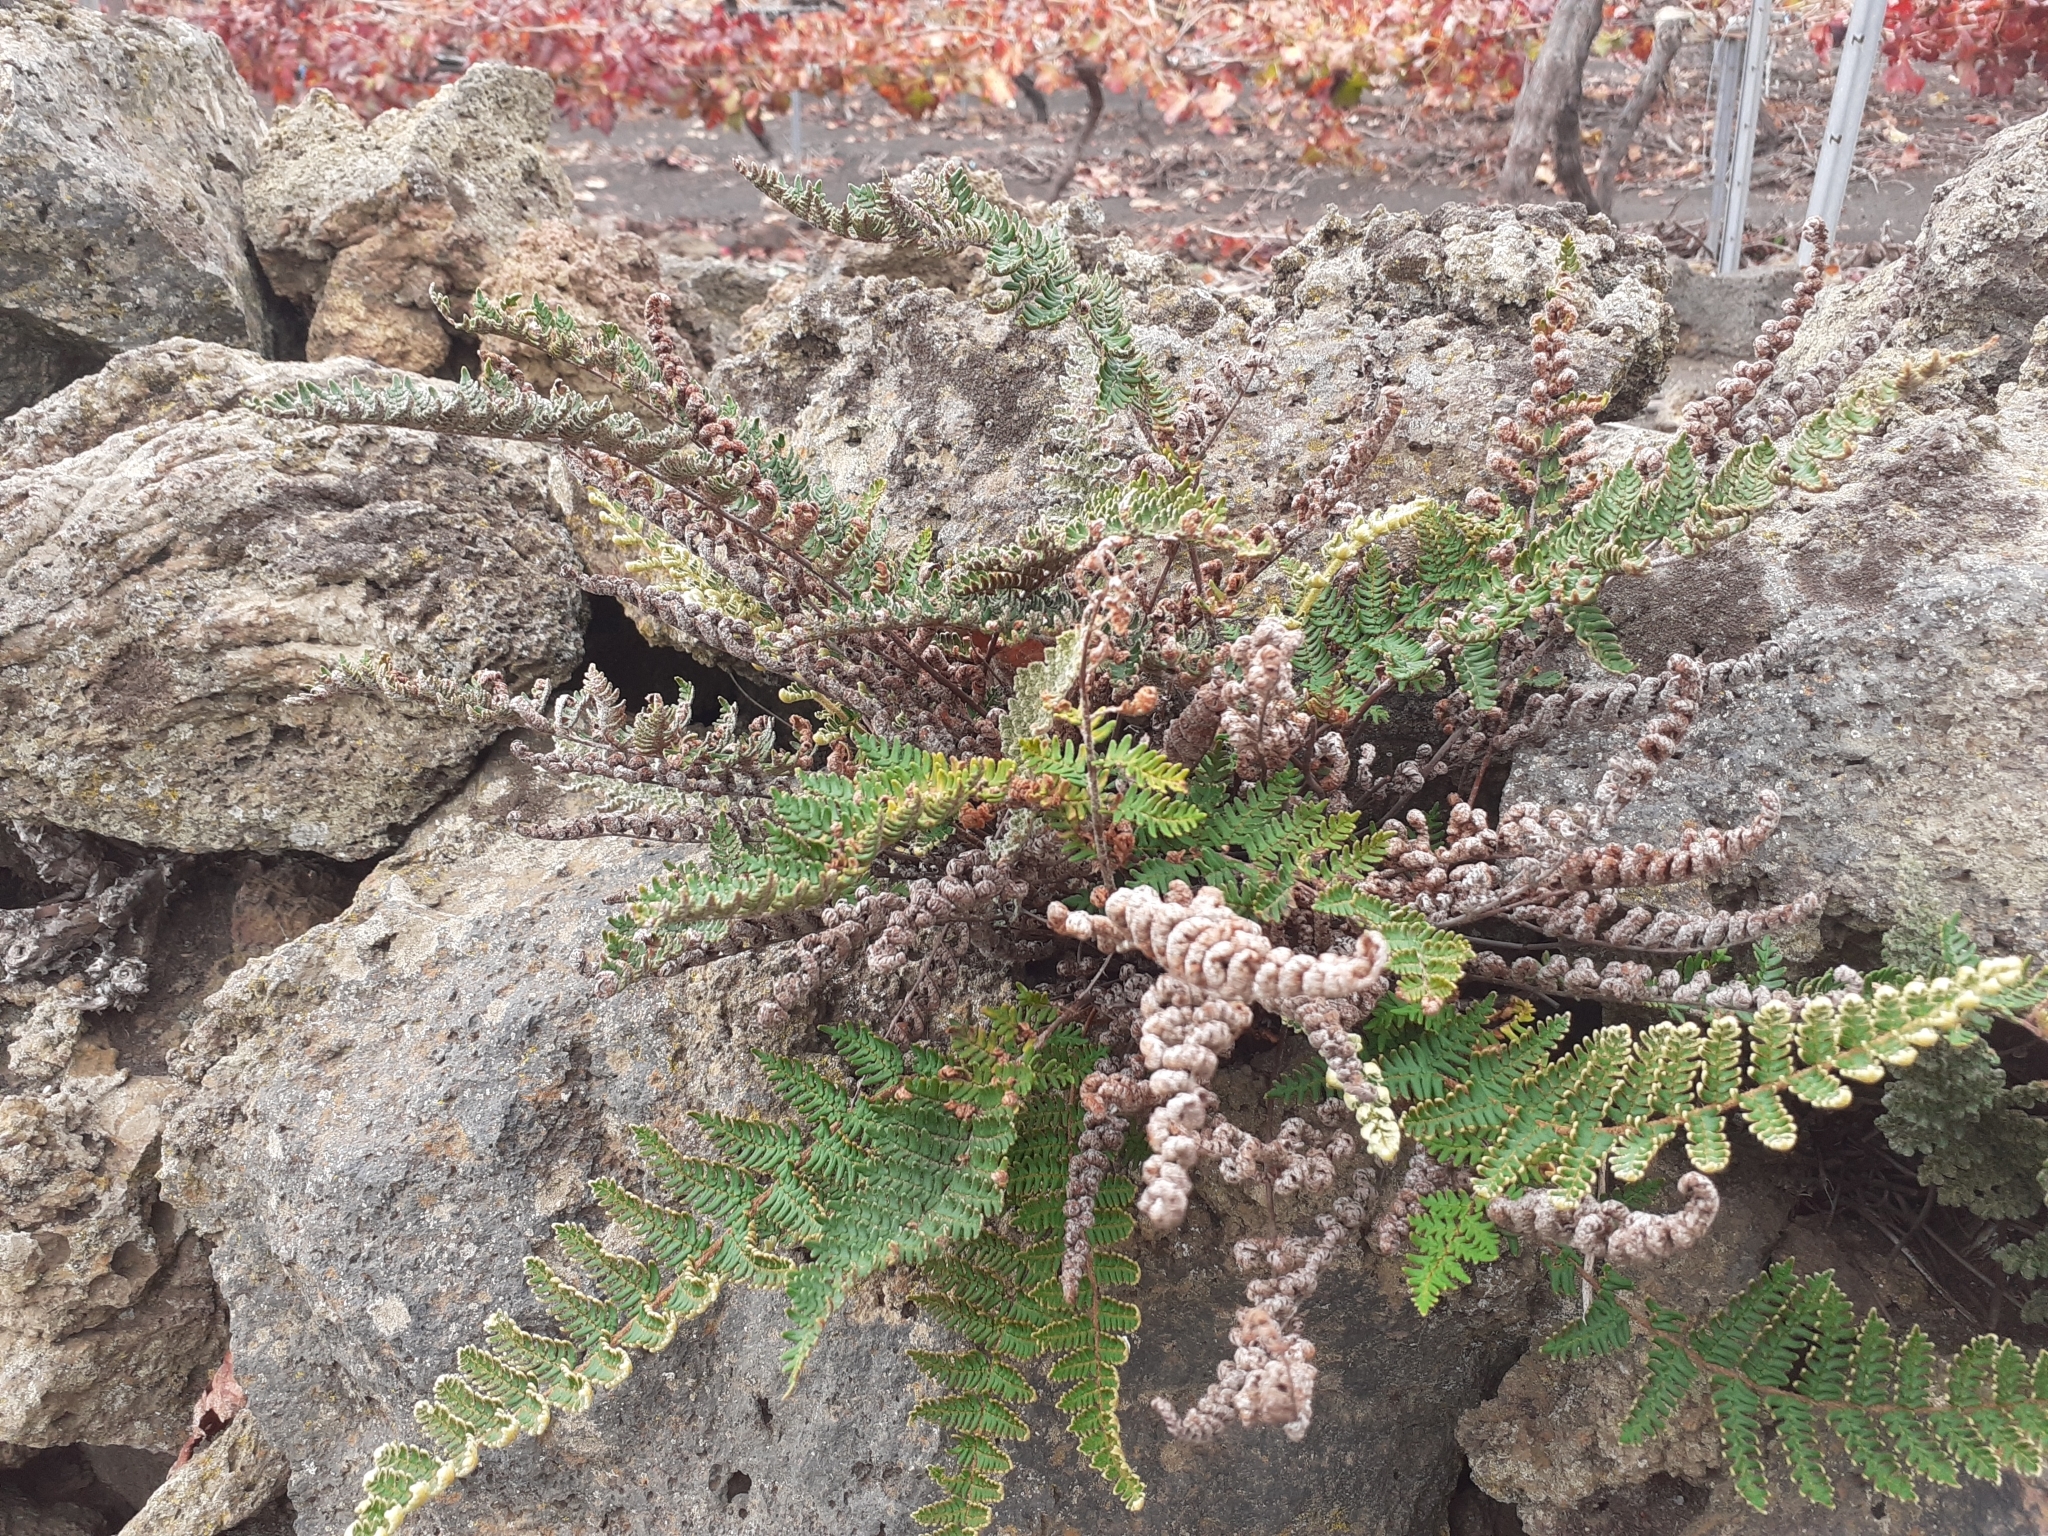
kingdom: Plantae
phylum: Tracheophyta
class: Polypodiopsida
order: Polypodiales
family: Pteridaceae
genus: Paragymnopteris
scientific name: Paragymnopteris marantae
